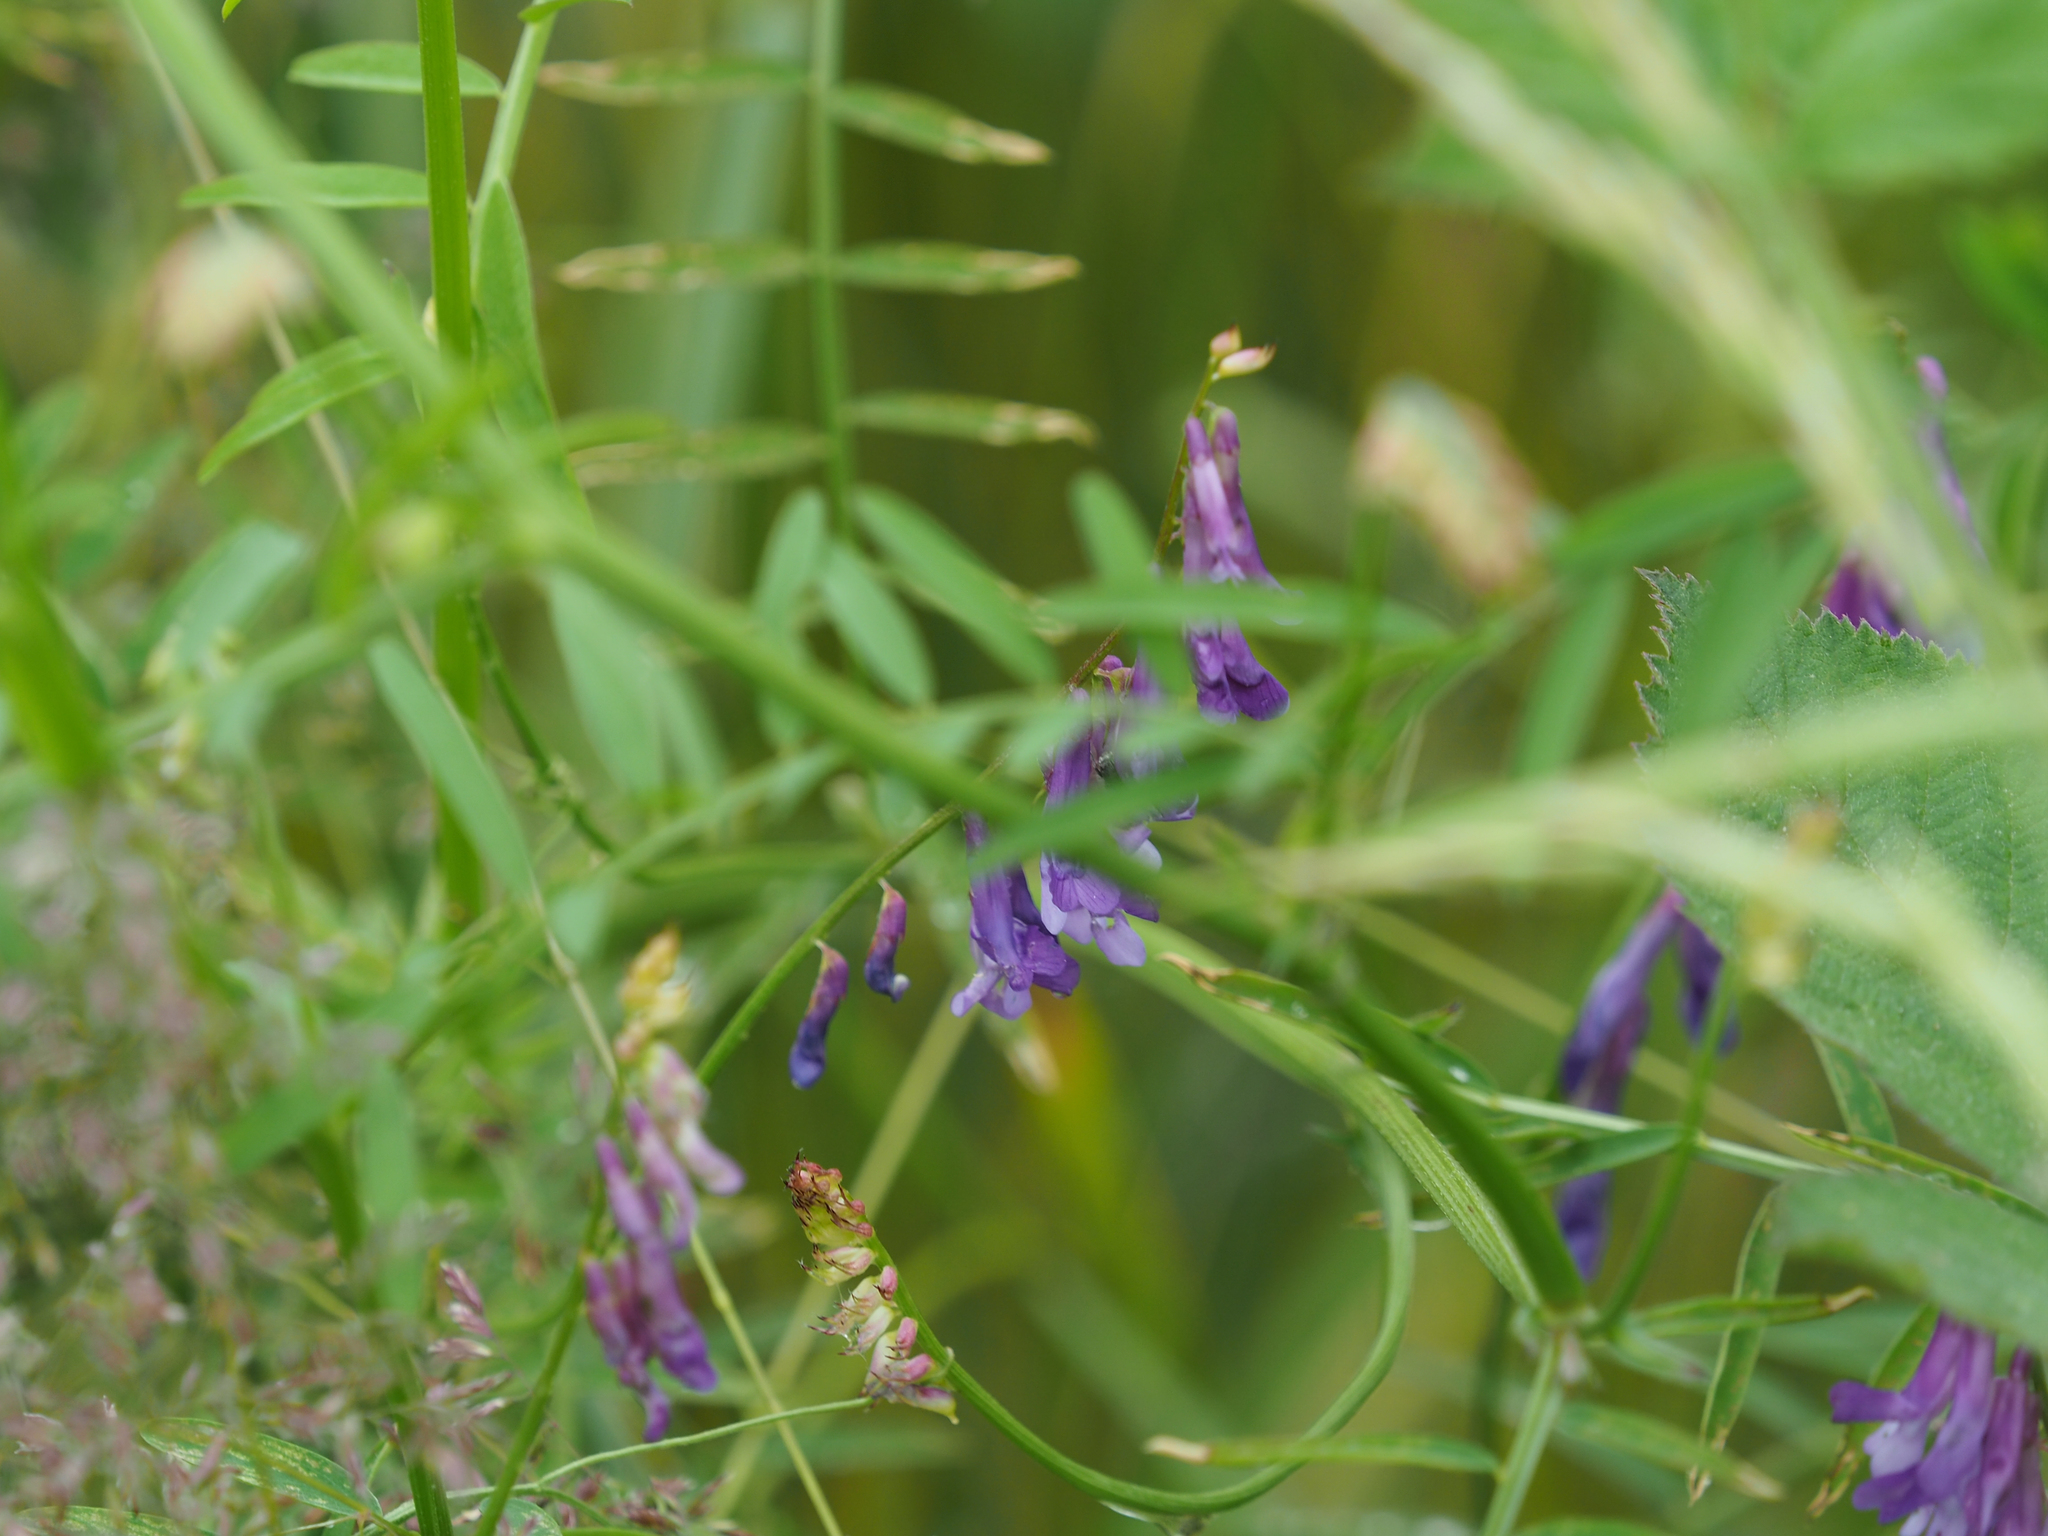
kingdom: Plantae
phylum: Tracheophyta
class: Magnoliopsida
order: Fabales
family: Fabaceae
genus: Vicia
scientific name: Vicia villosa
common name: Fodder vetch
